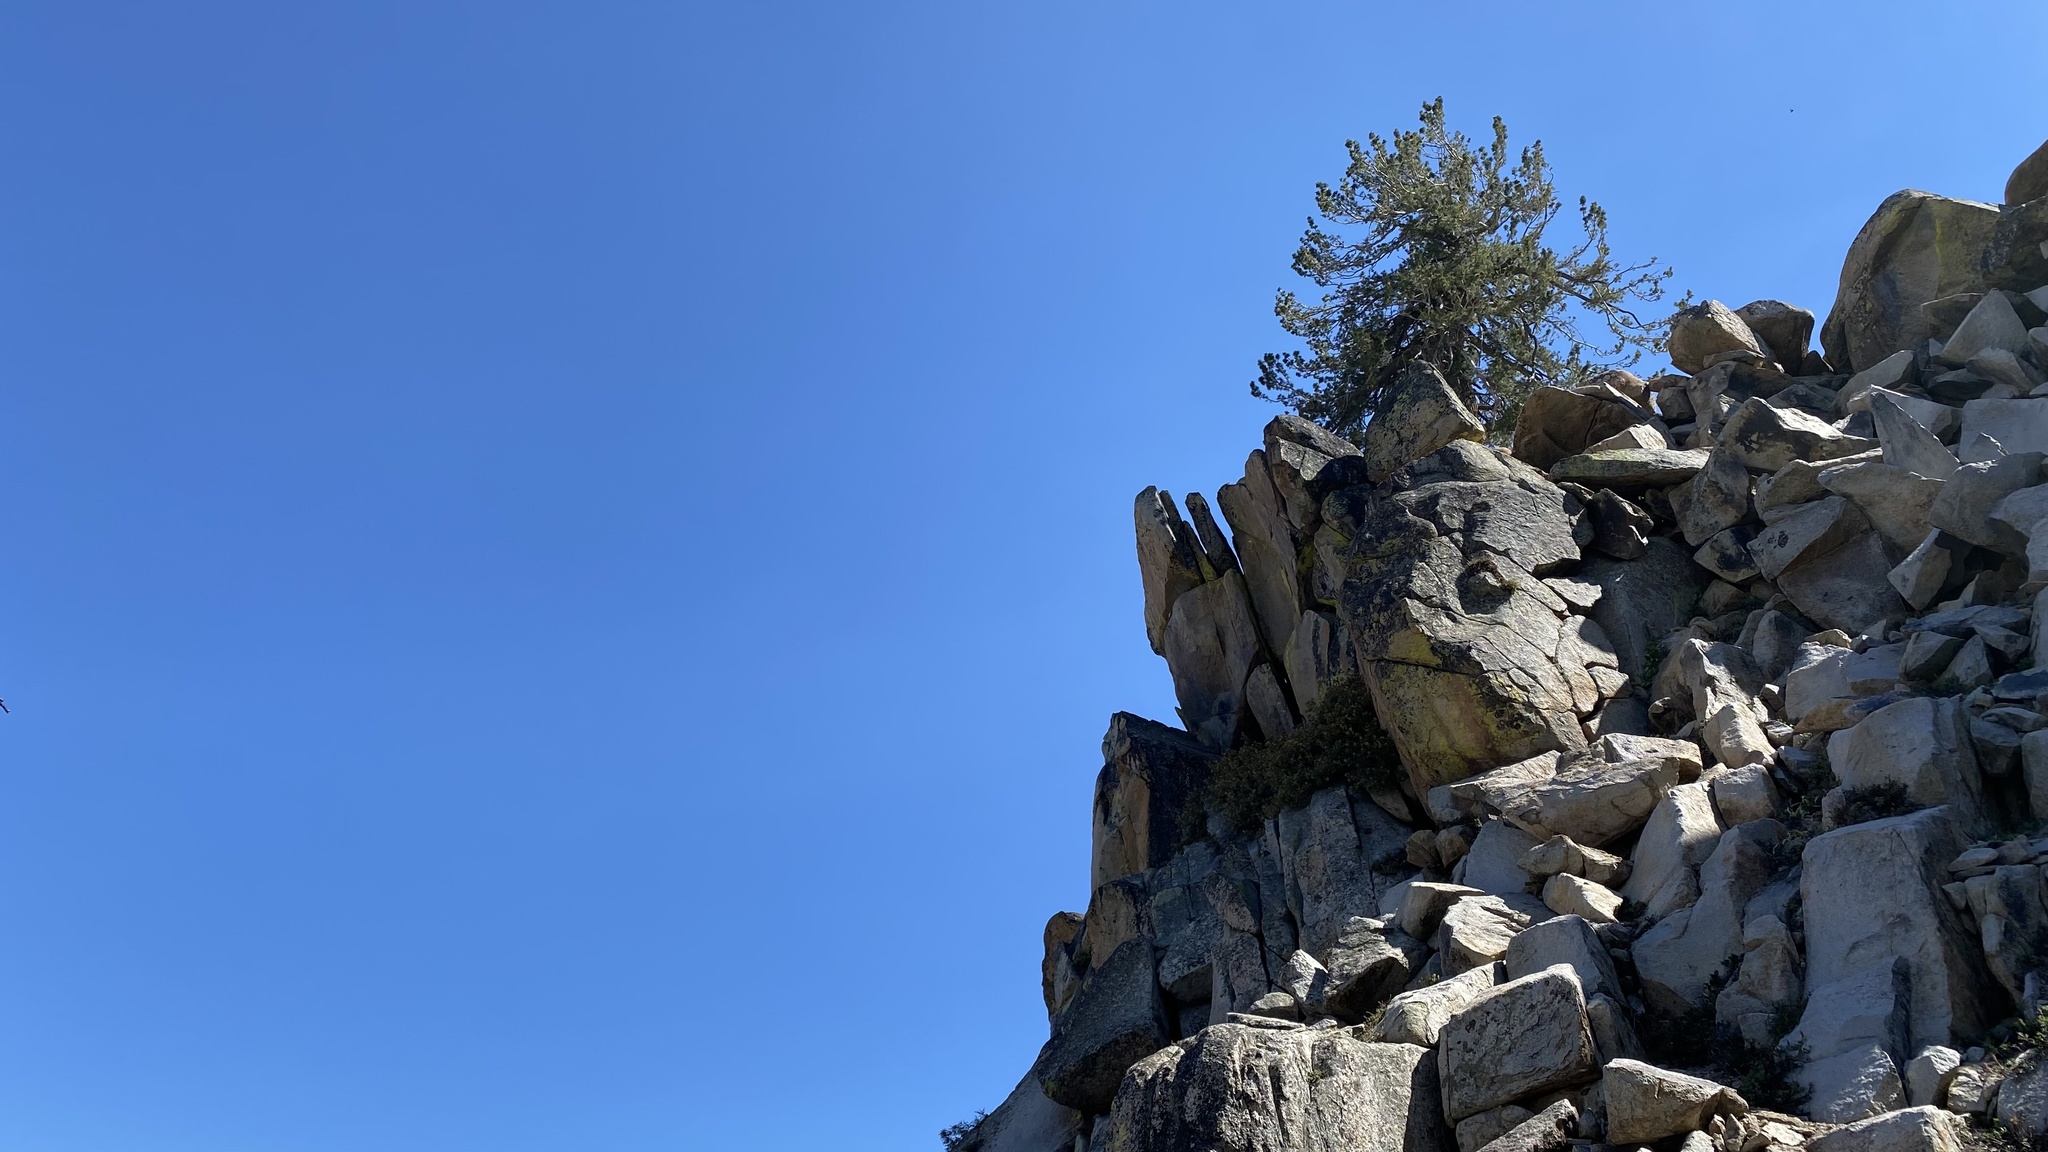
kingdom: Plantae
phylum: Tracheophyta
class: Pinopsida
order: Pinales
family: Pinaceae
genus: Pinus
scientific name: Pinus monticola
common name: Western white pine
